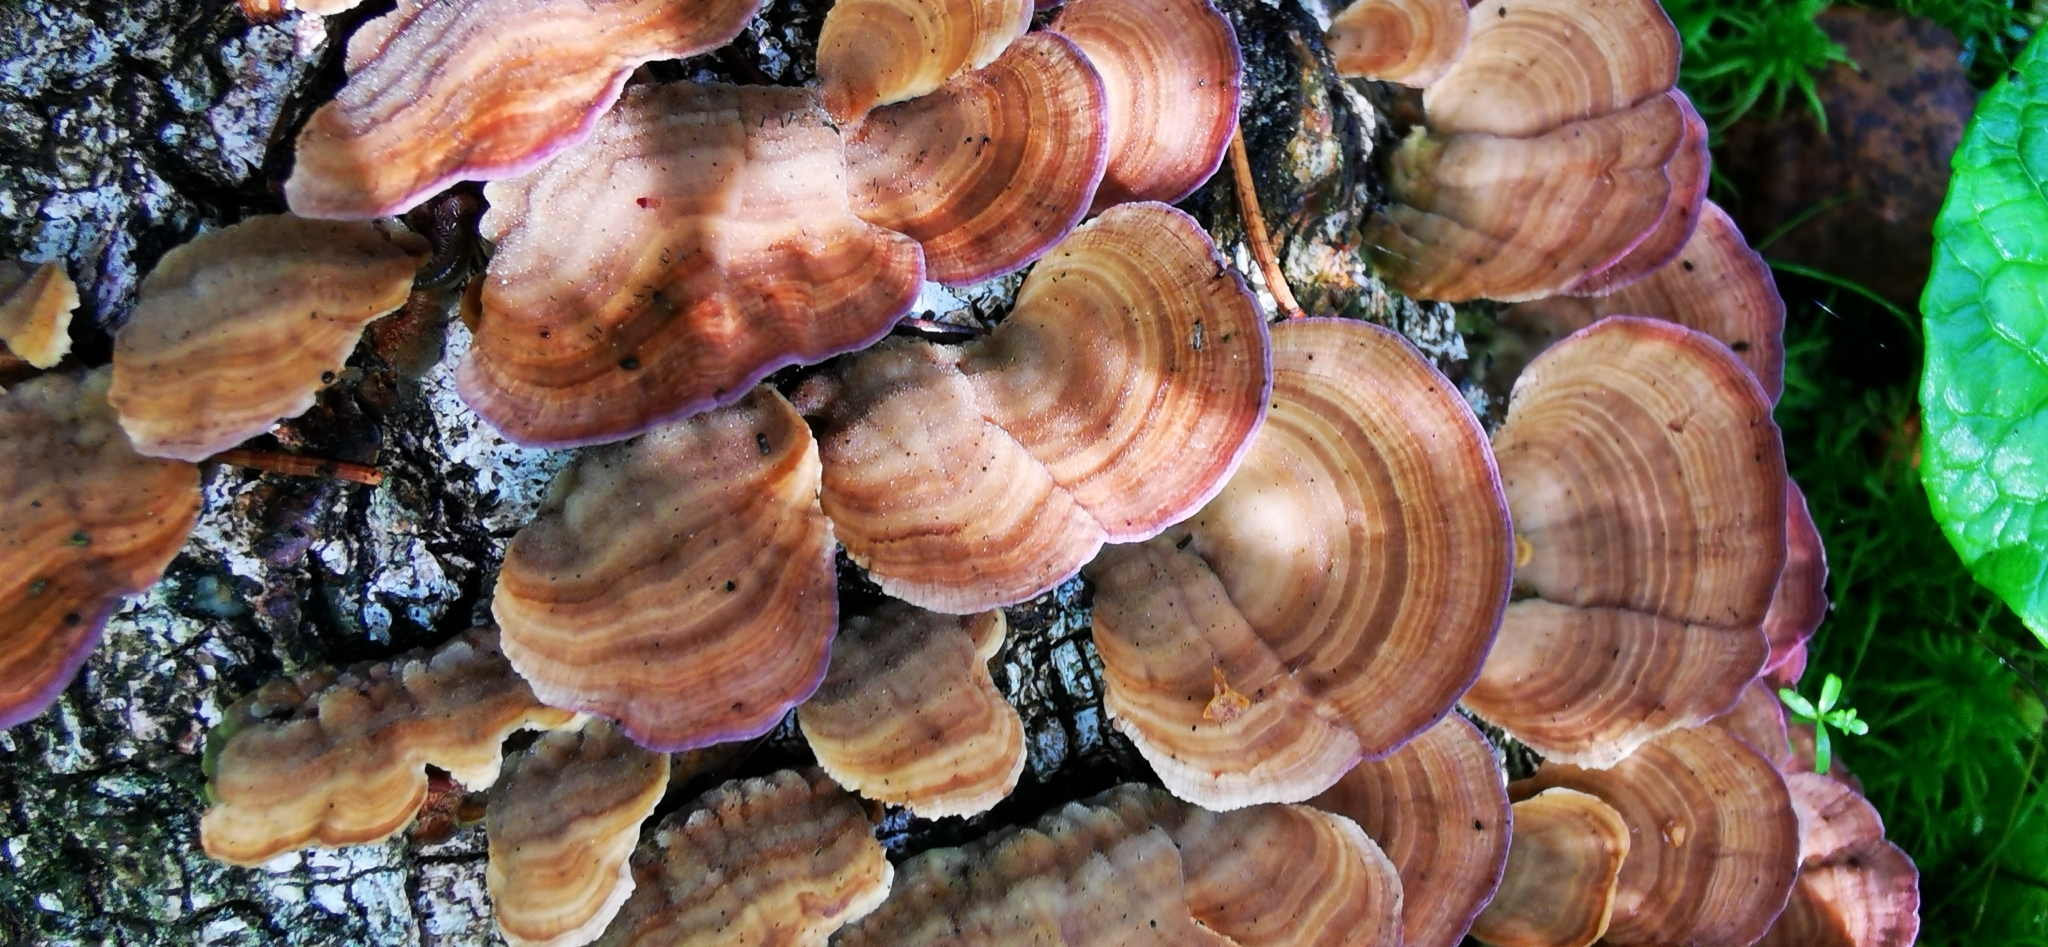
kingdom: Fungi
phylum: Basidiomycota
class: Agaricomycetes
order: Hymenochaetales
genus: Trichaptum
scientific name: Trichaptum biforme
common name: Violet-toothed polypore
